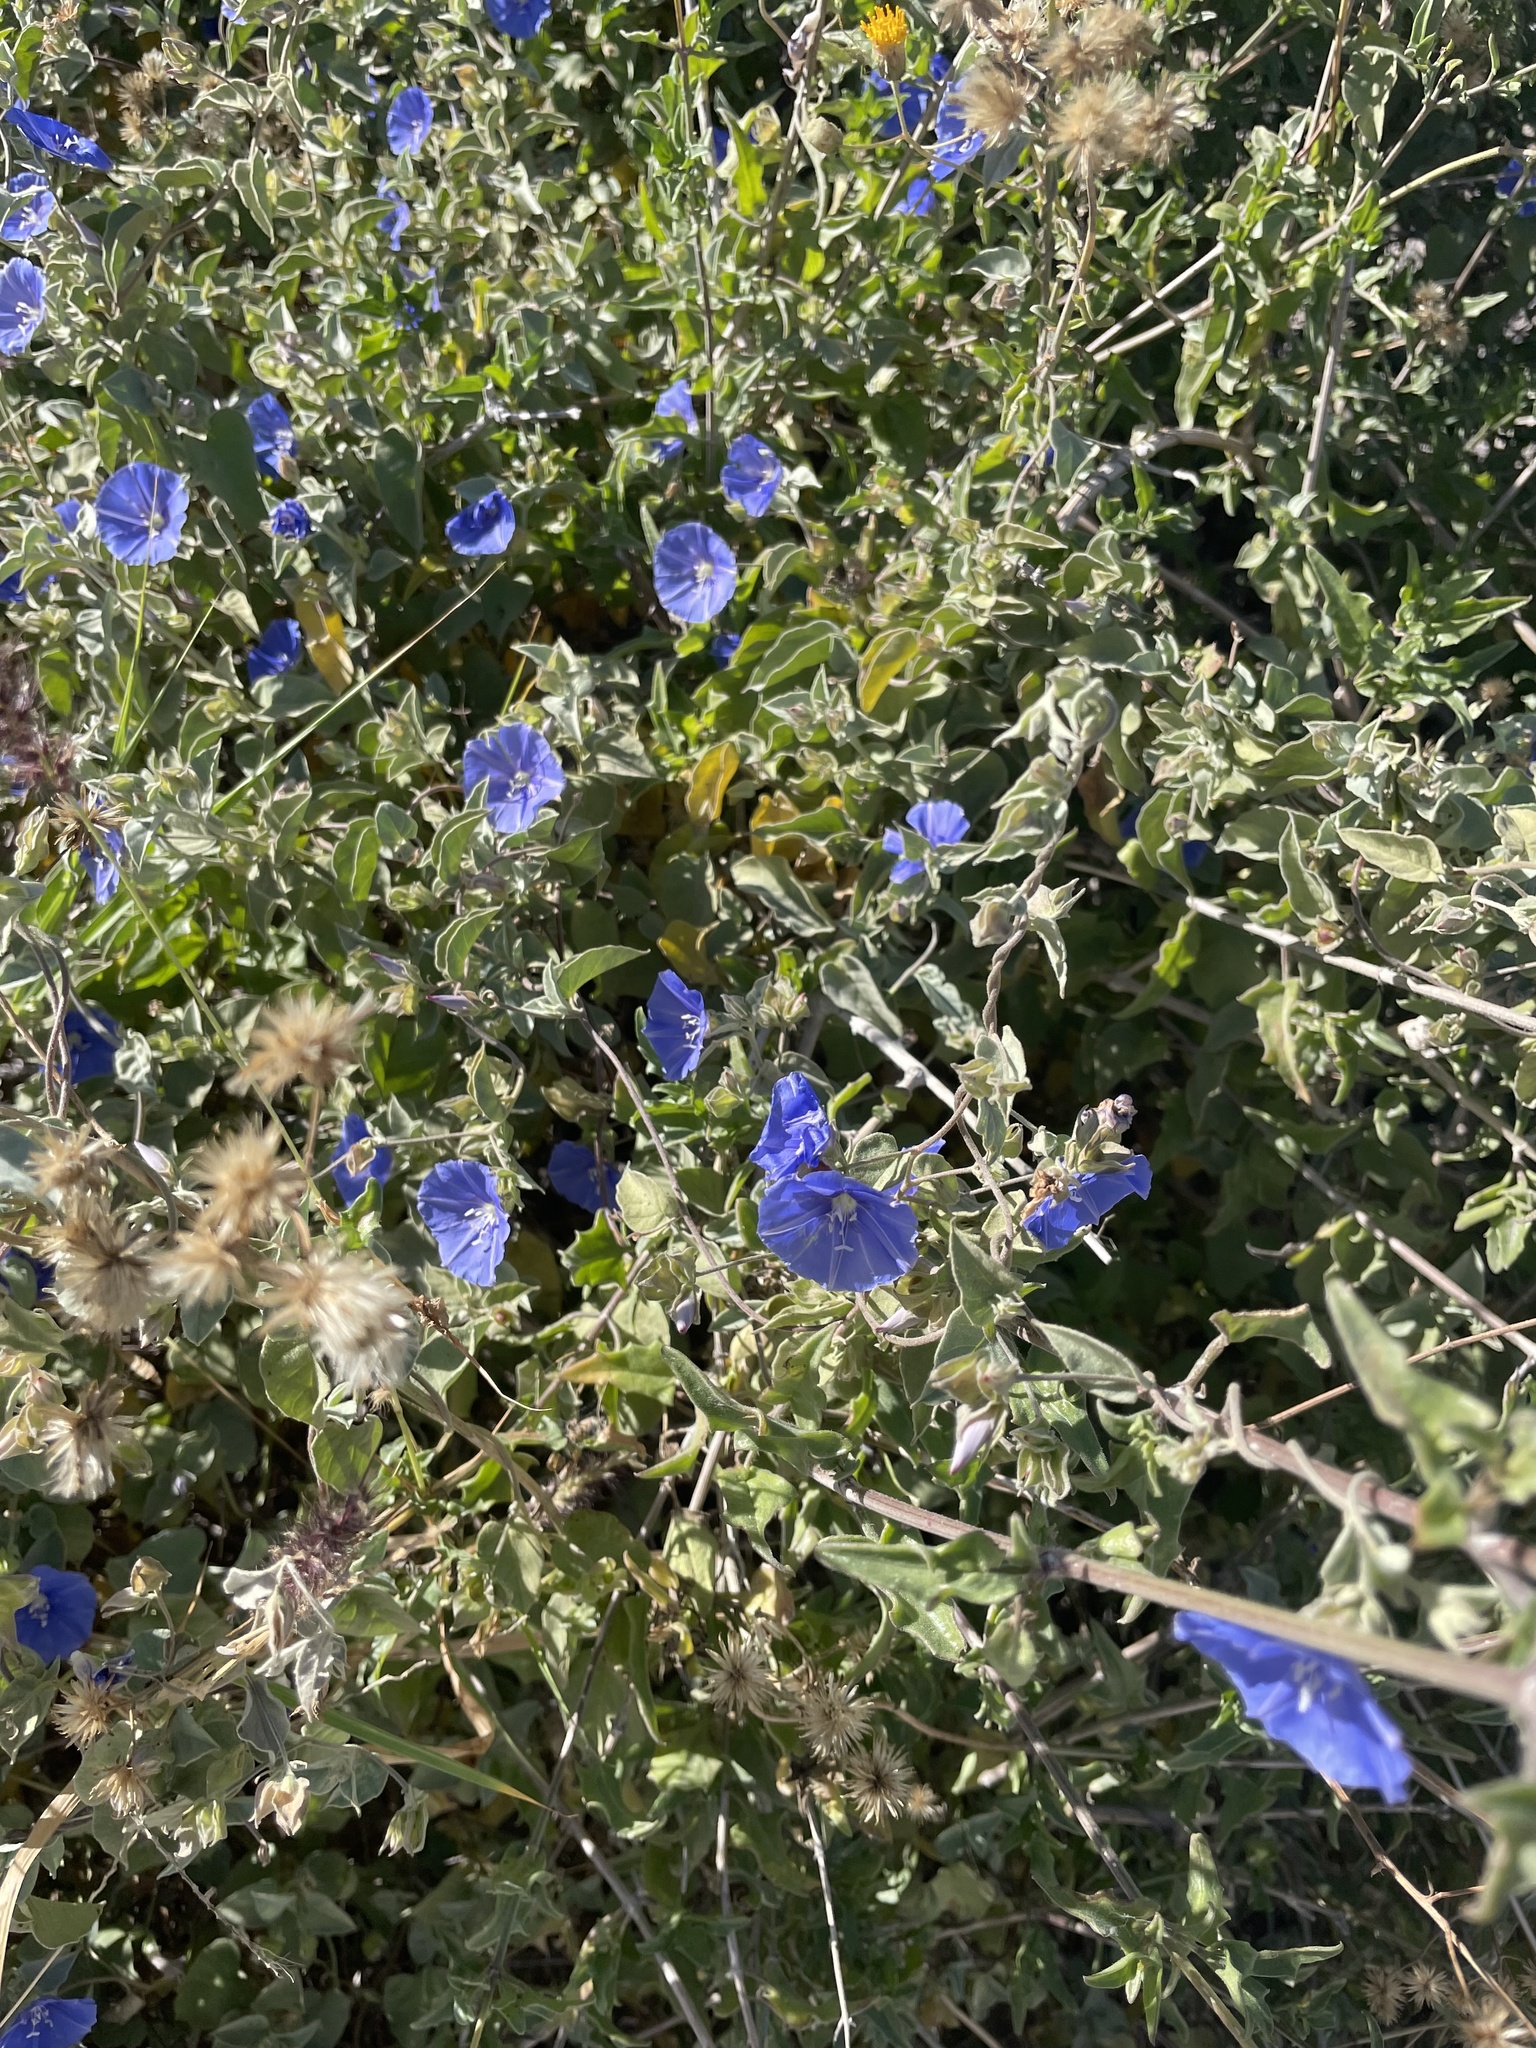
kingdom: Plantae
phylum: Tracheophyta
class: Magnoliopsida
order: Solanales
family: Convolvulaceae
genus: Jacquemontia
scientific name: Jacquemontia abutiloides
